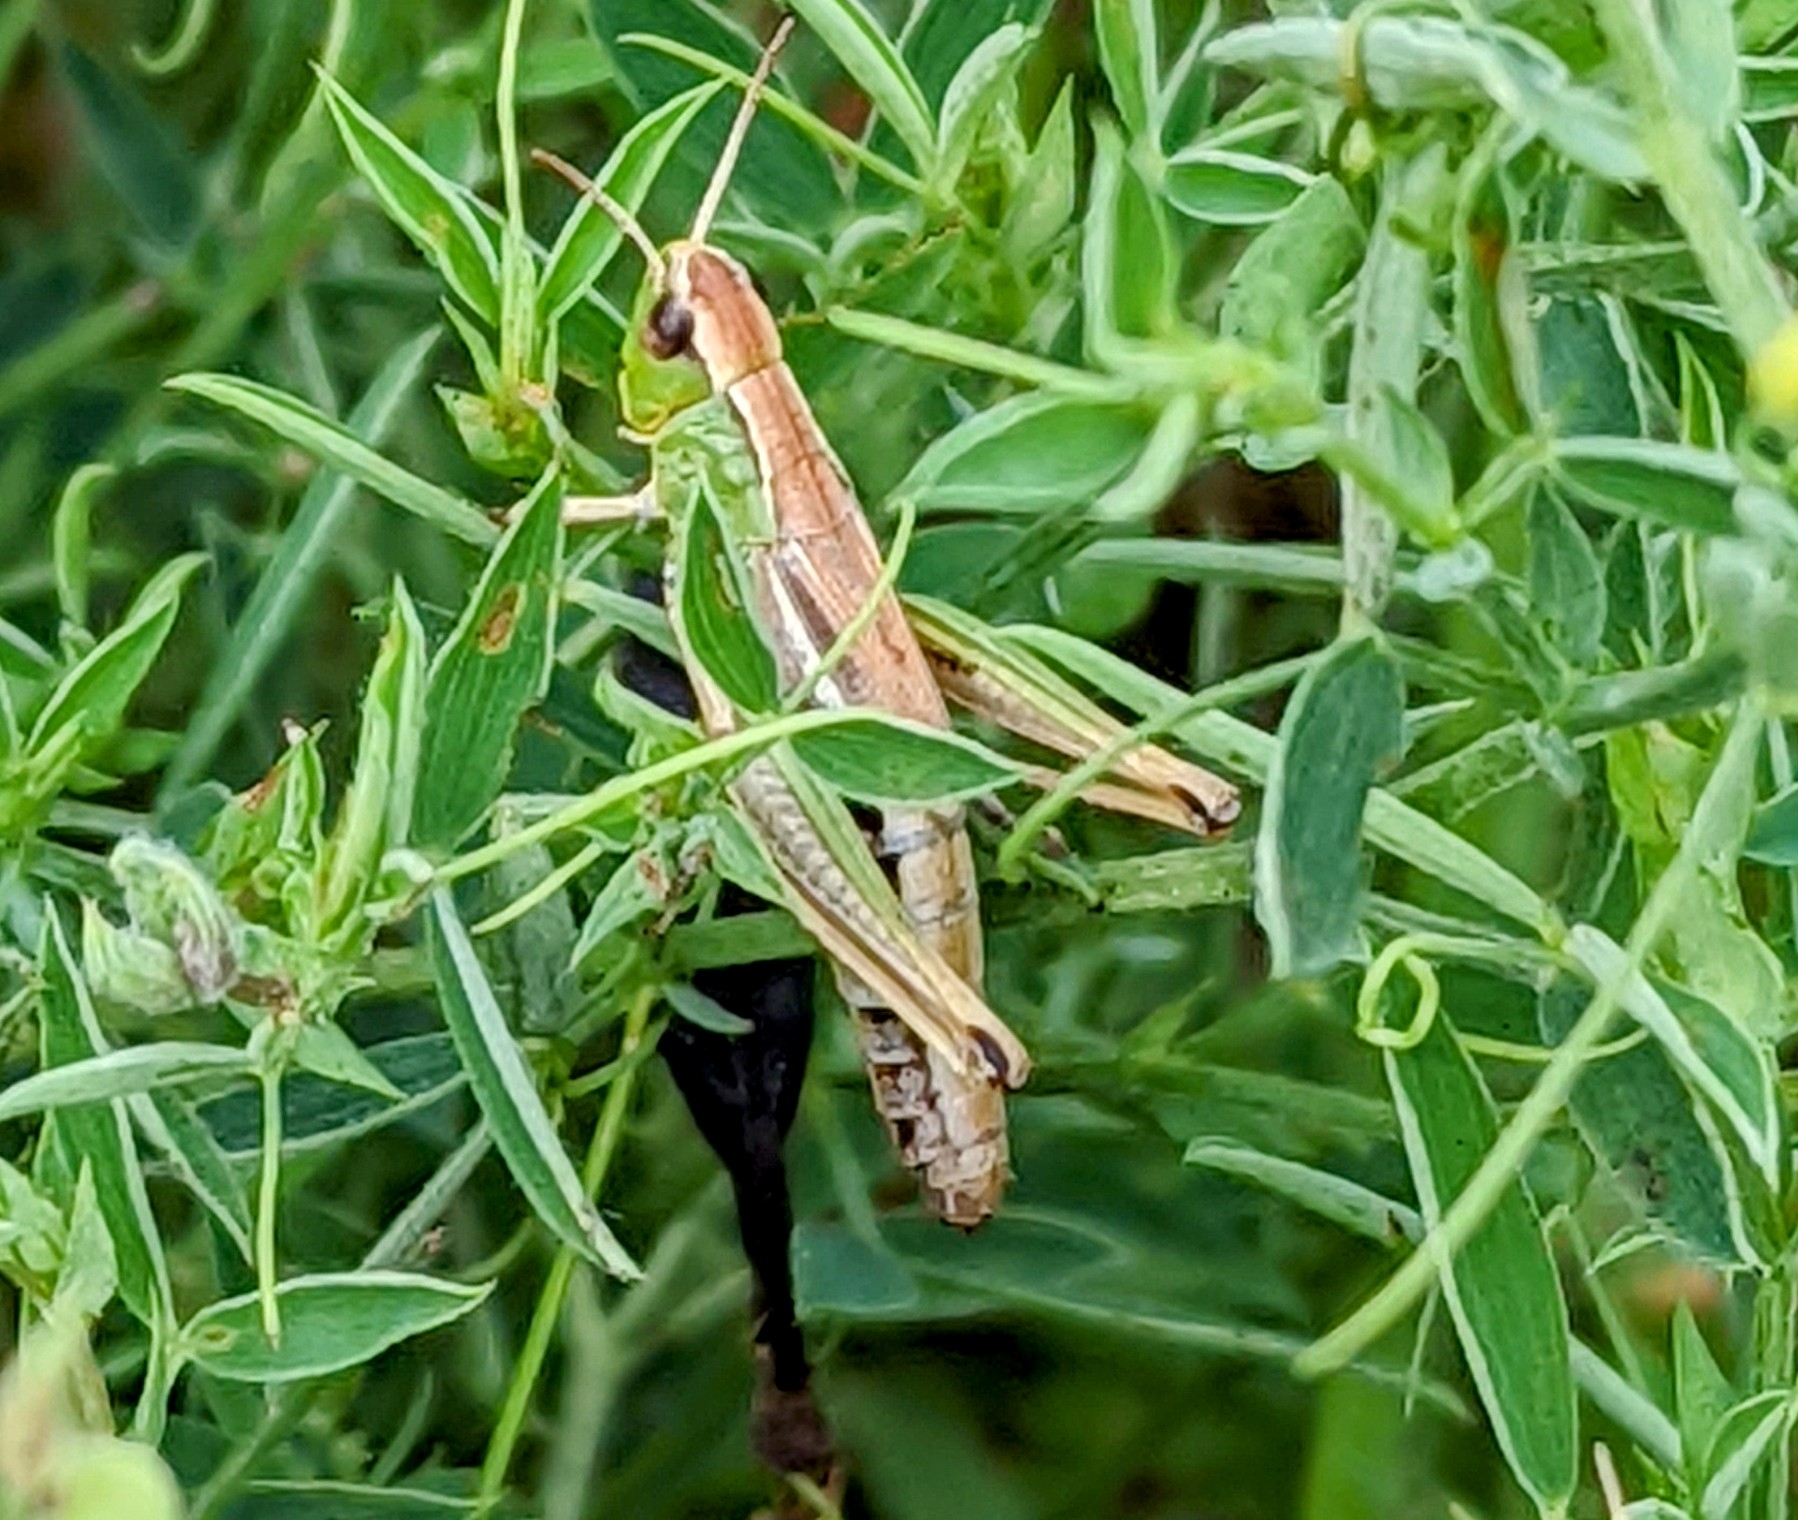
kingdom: Animalia
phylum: Arthropoda
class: Insecta
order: Orthoptera
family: Acrididae
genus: Pseudochorthippus
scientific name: Pseudochorthippus parallelus
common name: Meadow grasshopper
